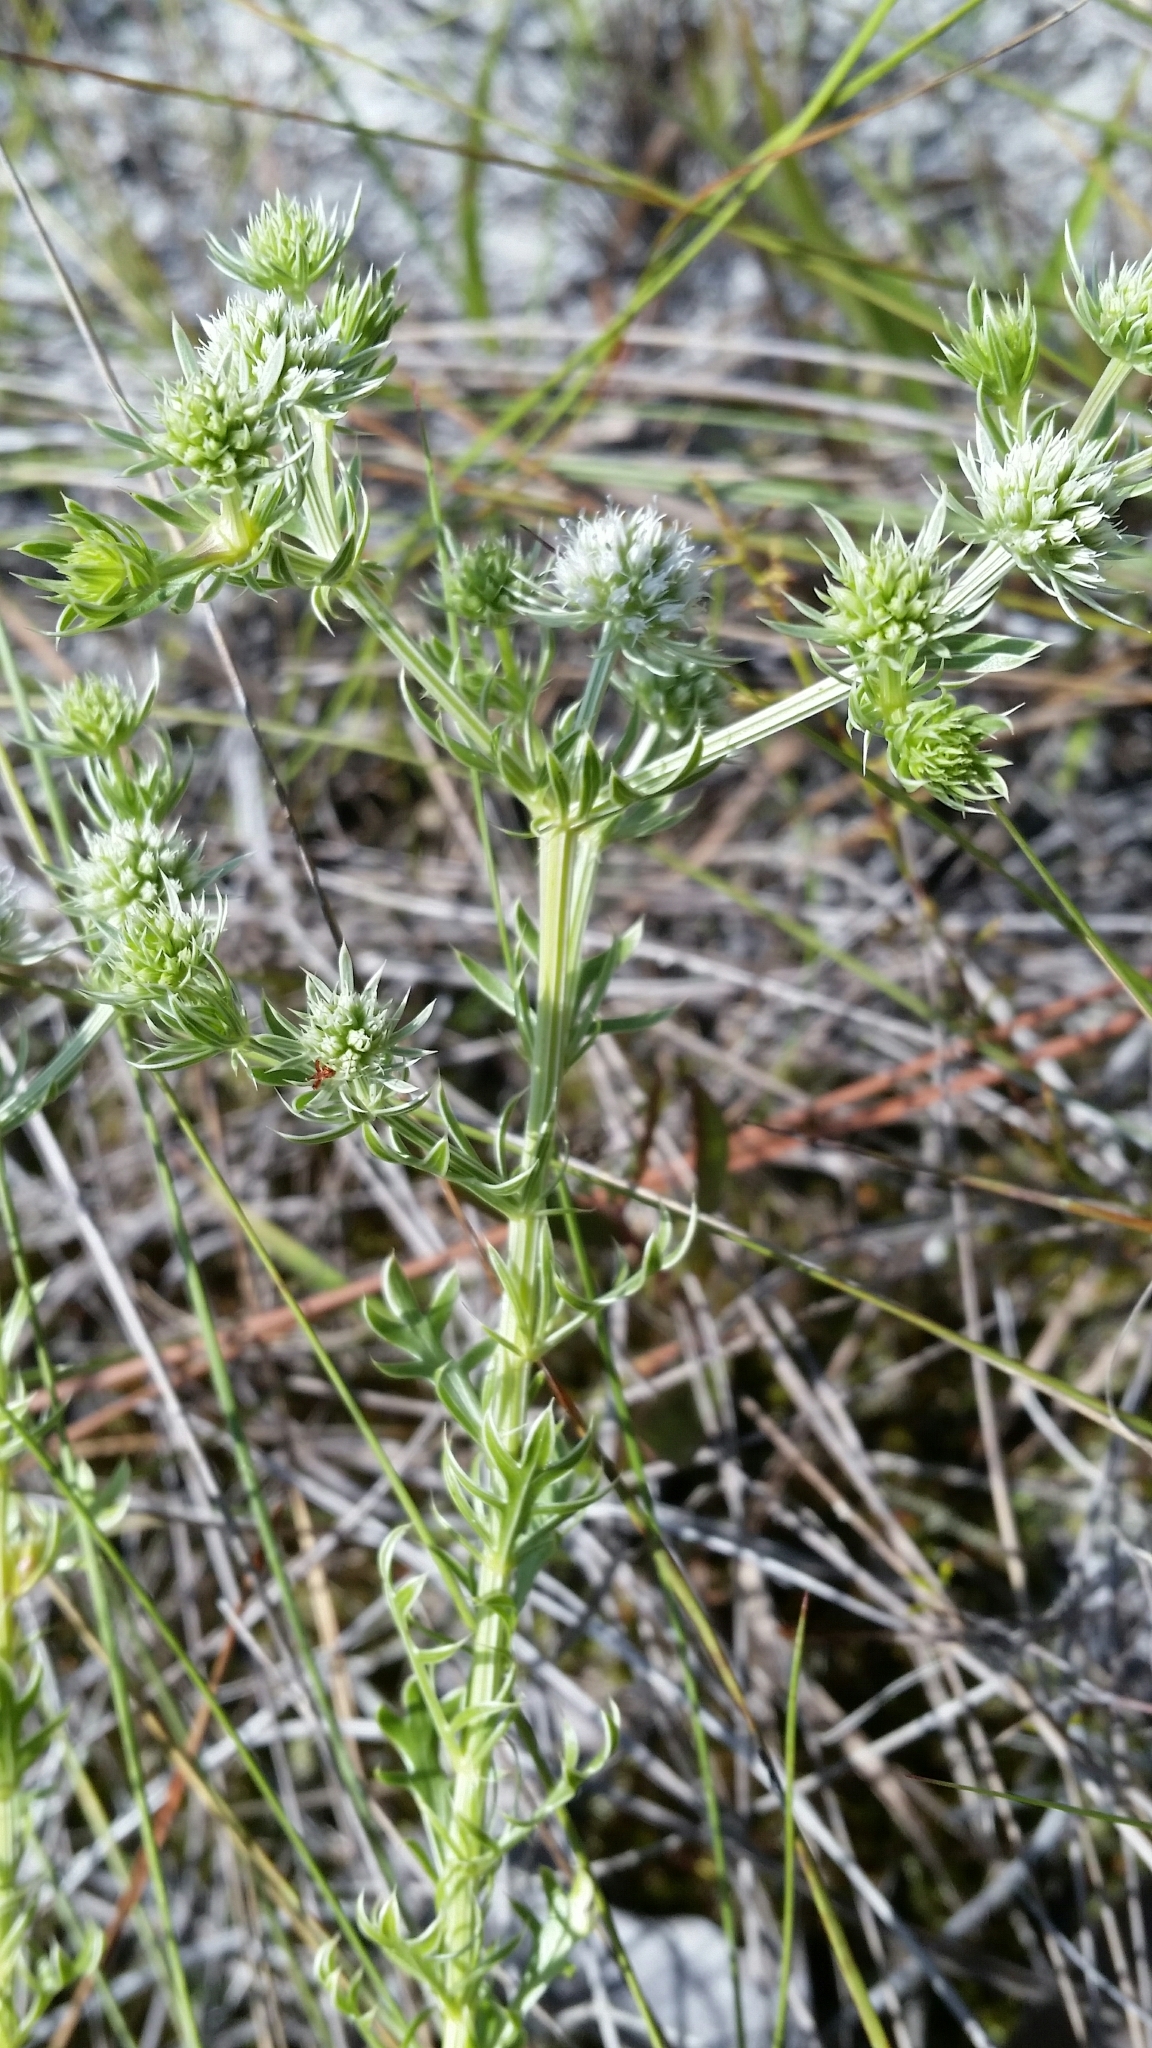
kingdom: Plantae
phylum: Tracheophyta
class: Magnoliopsida
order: Apiales
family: Apiaceae
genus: Eryngium
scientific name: Eryngium aromaticum
